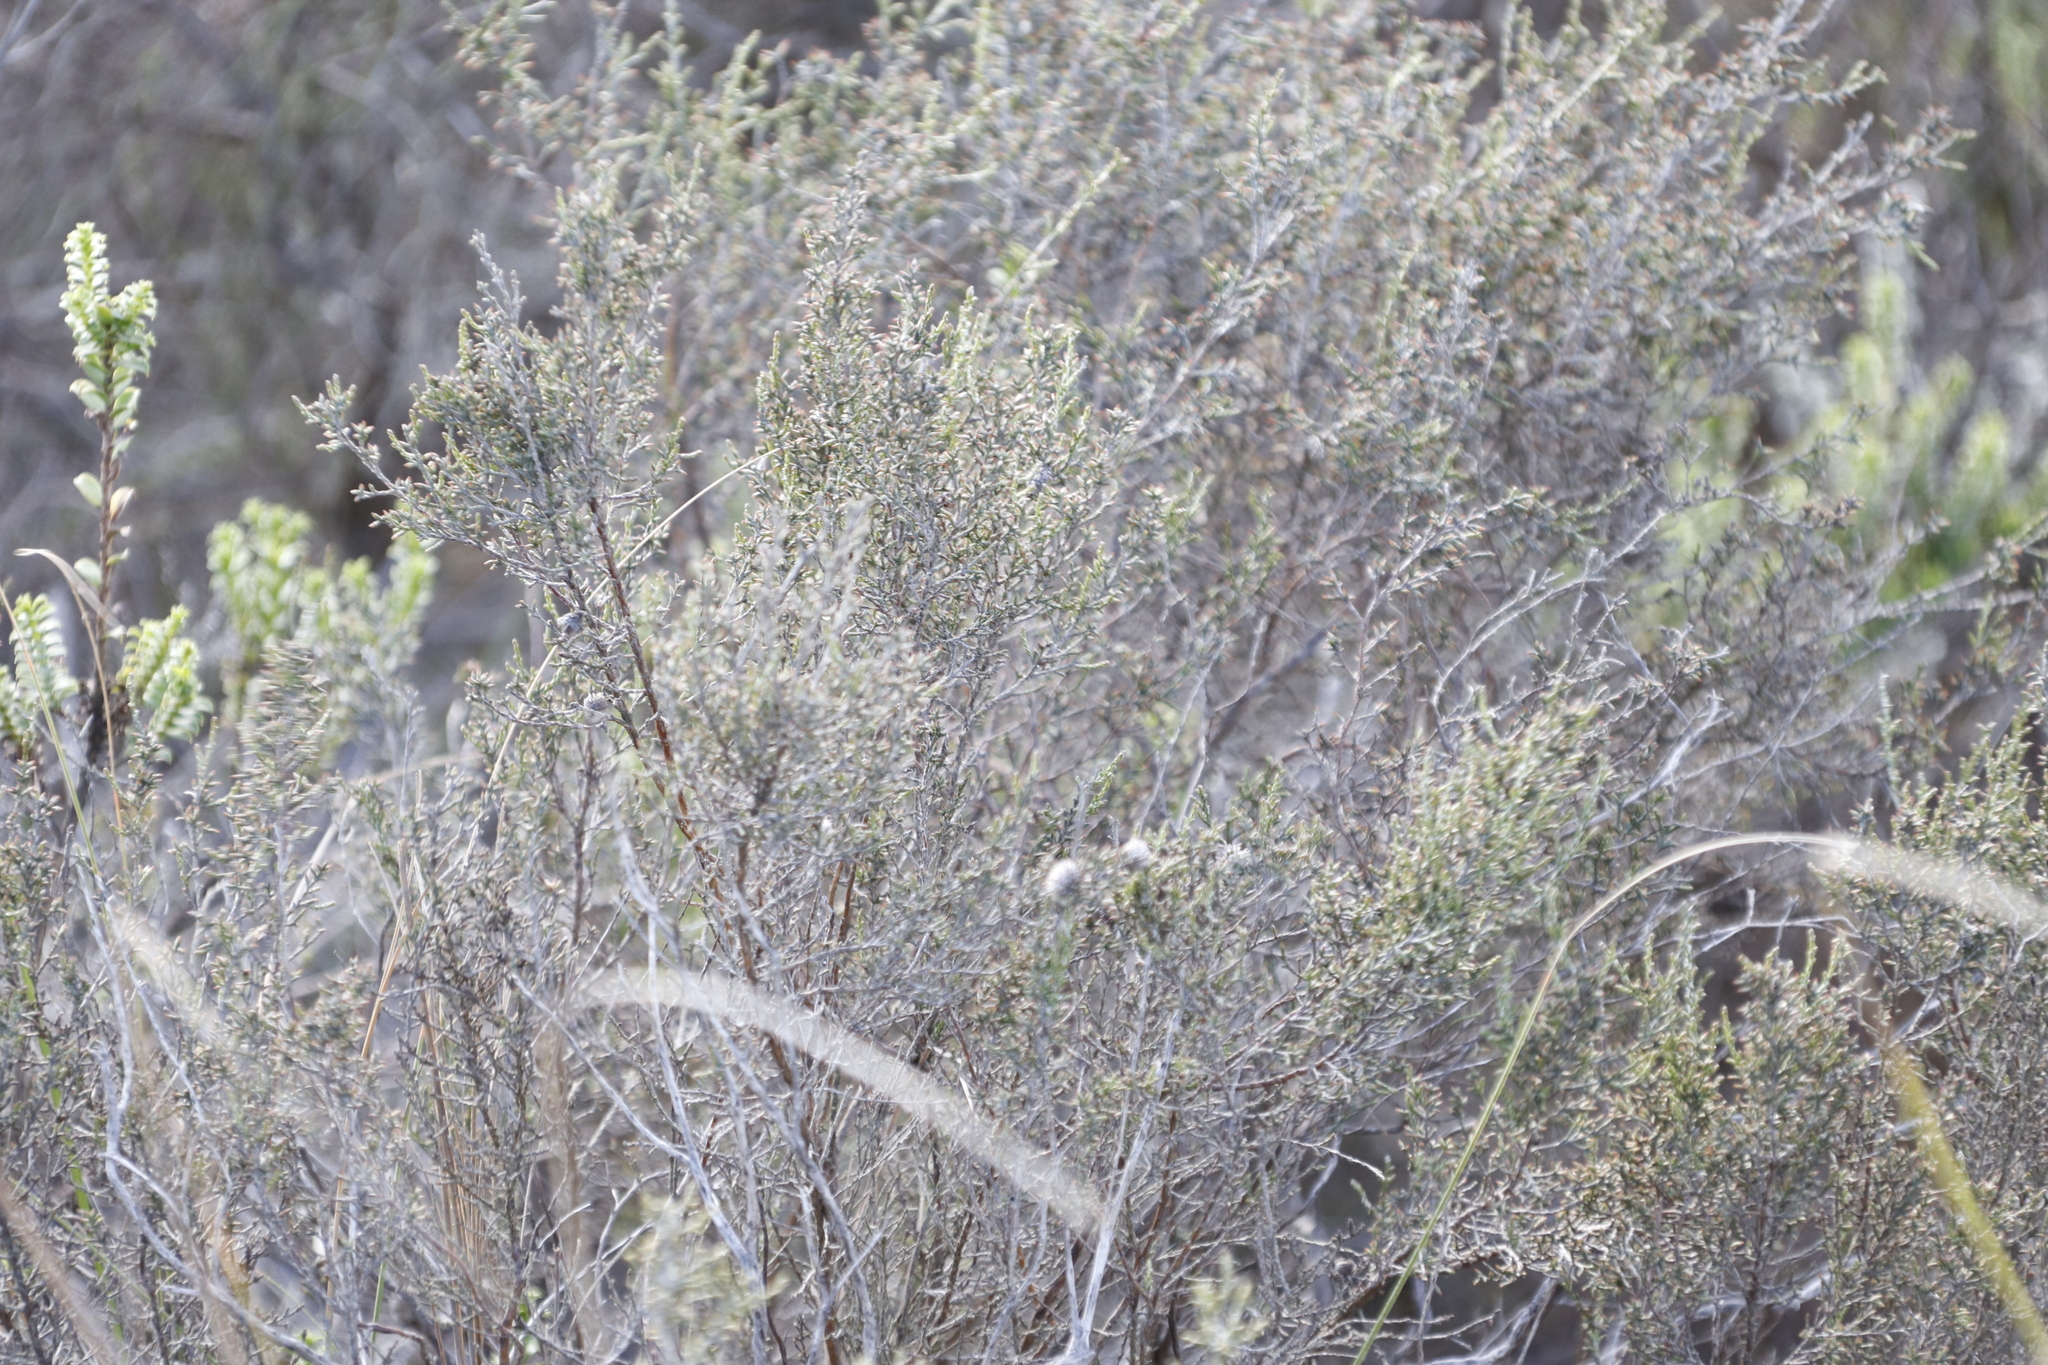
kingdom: Plantae
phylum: Tracheophyta
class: Magnoliopsida
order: Asterales
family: Asteraceae
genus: Dicerothamnus
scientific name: Dicerothamnus rhinocerotis
